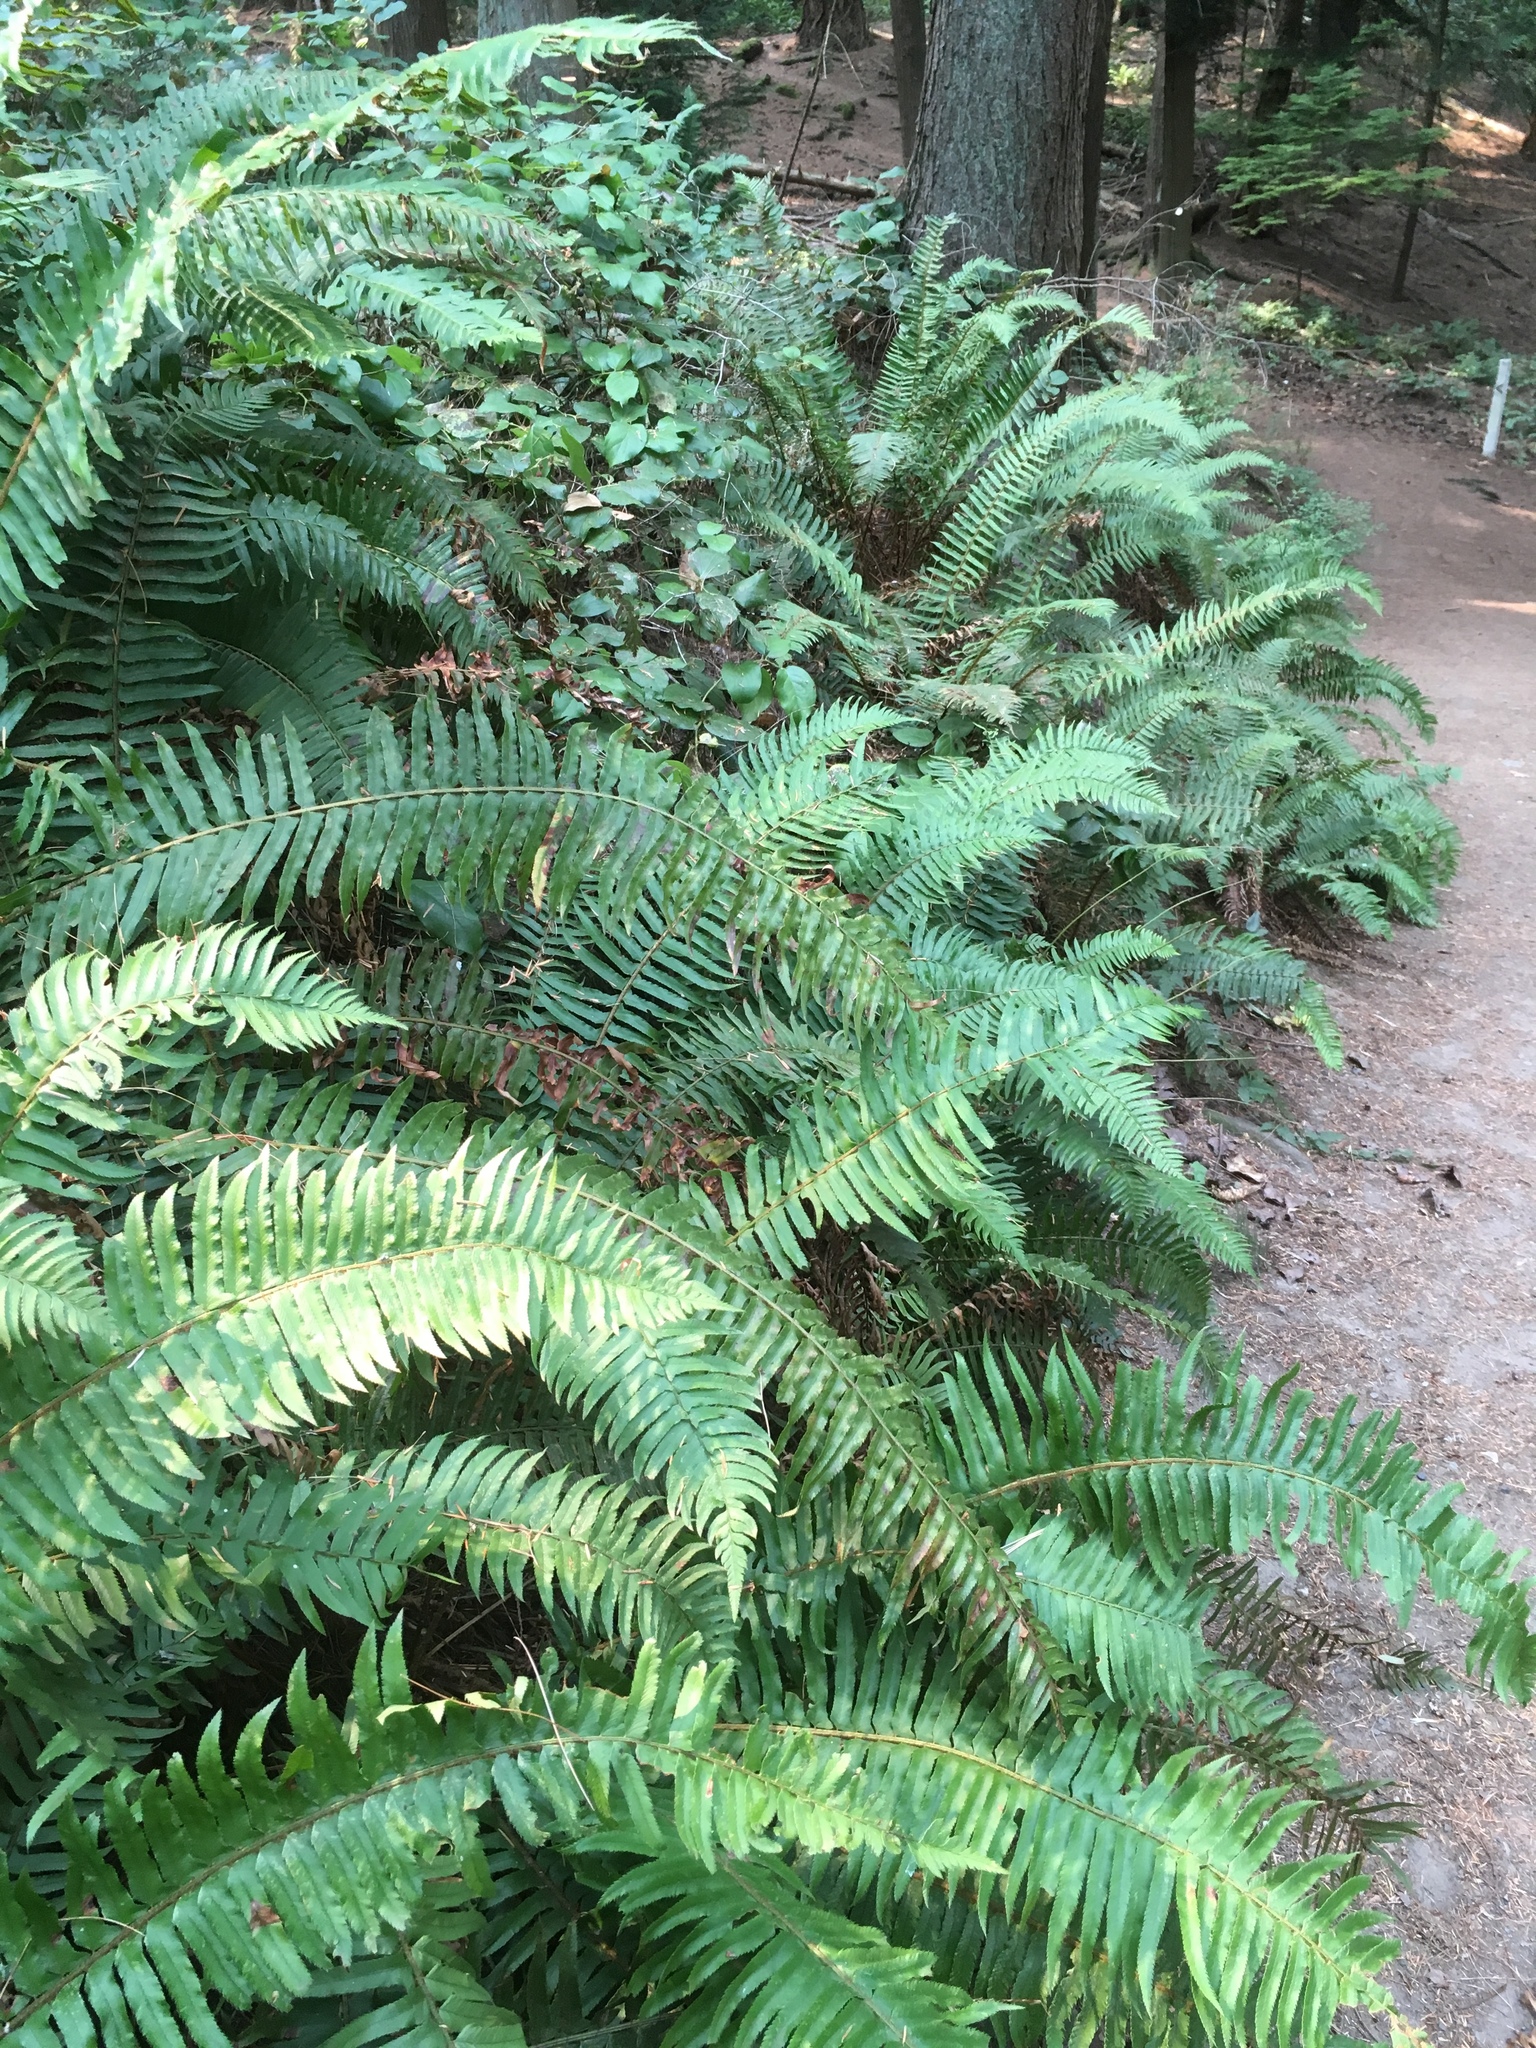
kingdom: Plantae
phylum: Tracheophyta
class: Polypodiopsida
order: Polypodiales
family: Dryopteridaceae
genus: Polystichum
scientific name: Polystichum munitum
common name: Western sword-fern
